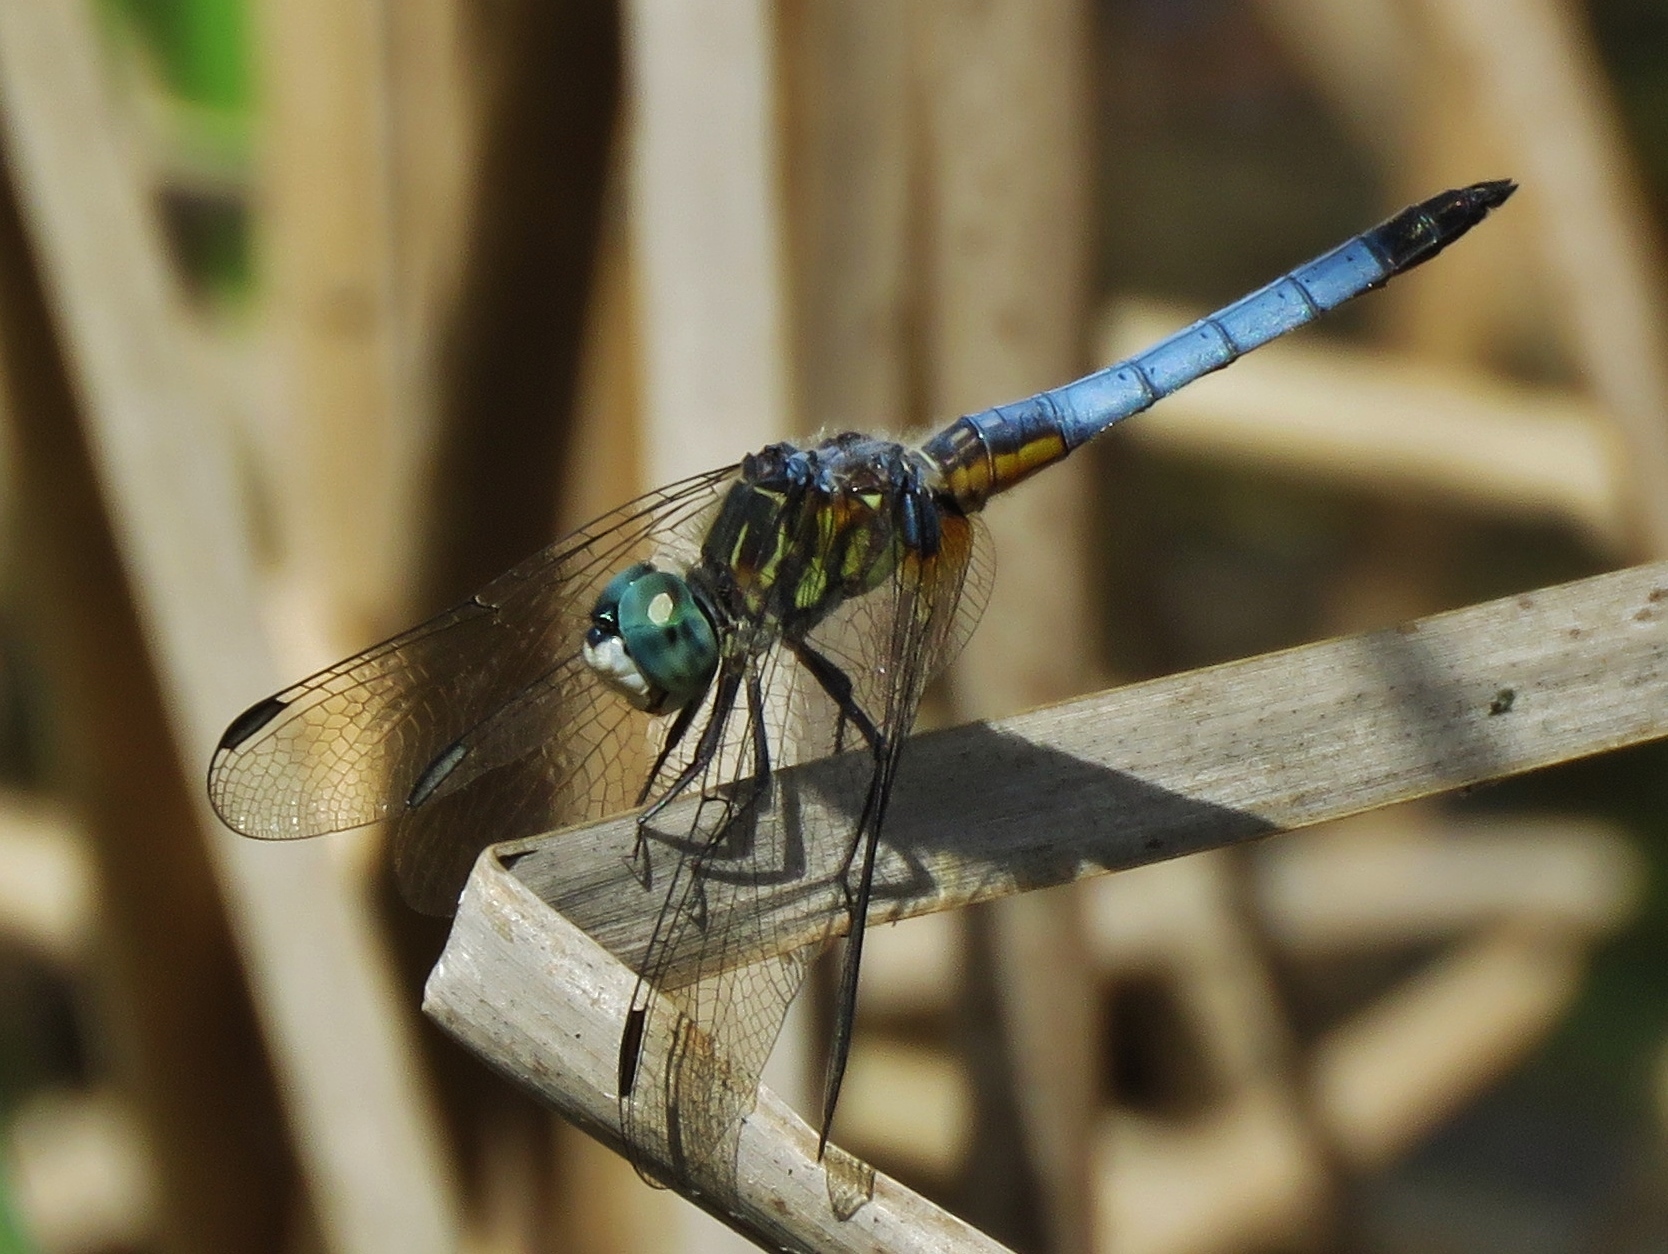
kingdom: Animalia
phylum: Arthropoda
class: Insecta
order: Odonata
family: Libellulidae
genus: Pachydiplax
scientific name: Pachydiplax longipennis
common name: Blue dasher
